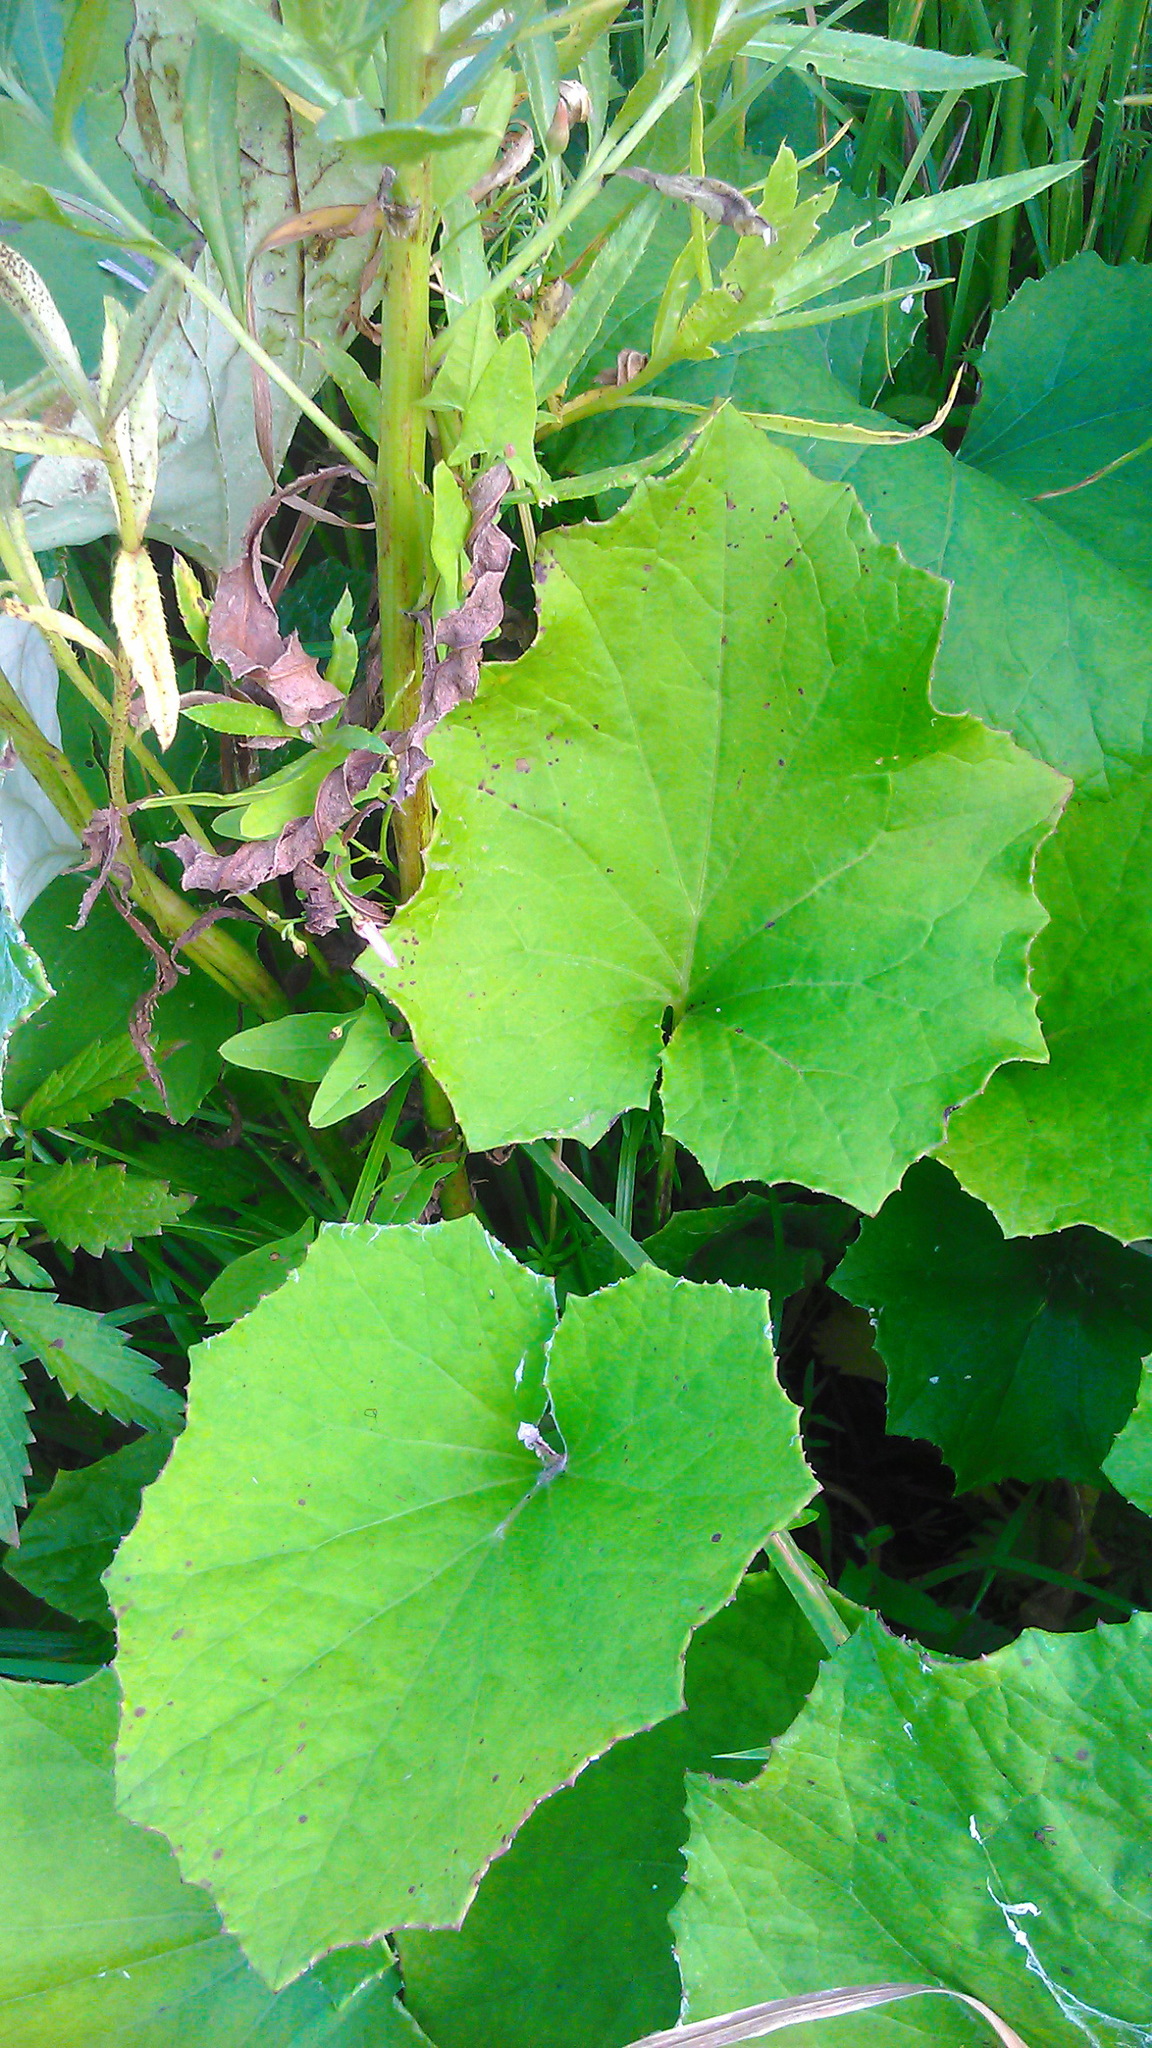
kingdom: Plantae
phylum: Tracheophyta
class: Magnoliopsida
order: Asterales
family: Asteraceae
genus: Tussilago
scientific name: Tussilago farfara
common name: Coltsfoot
